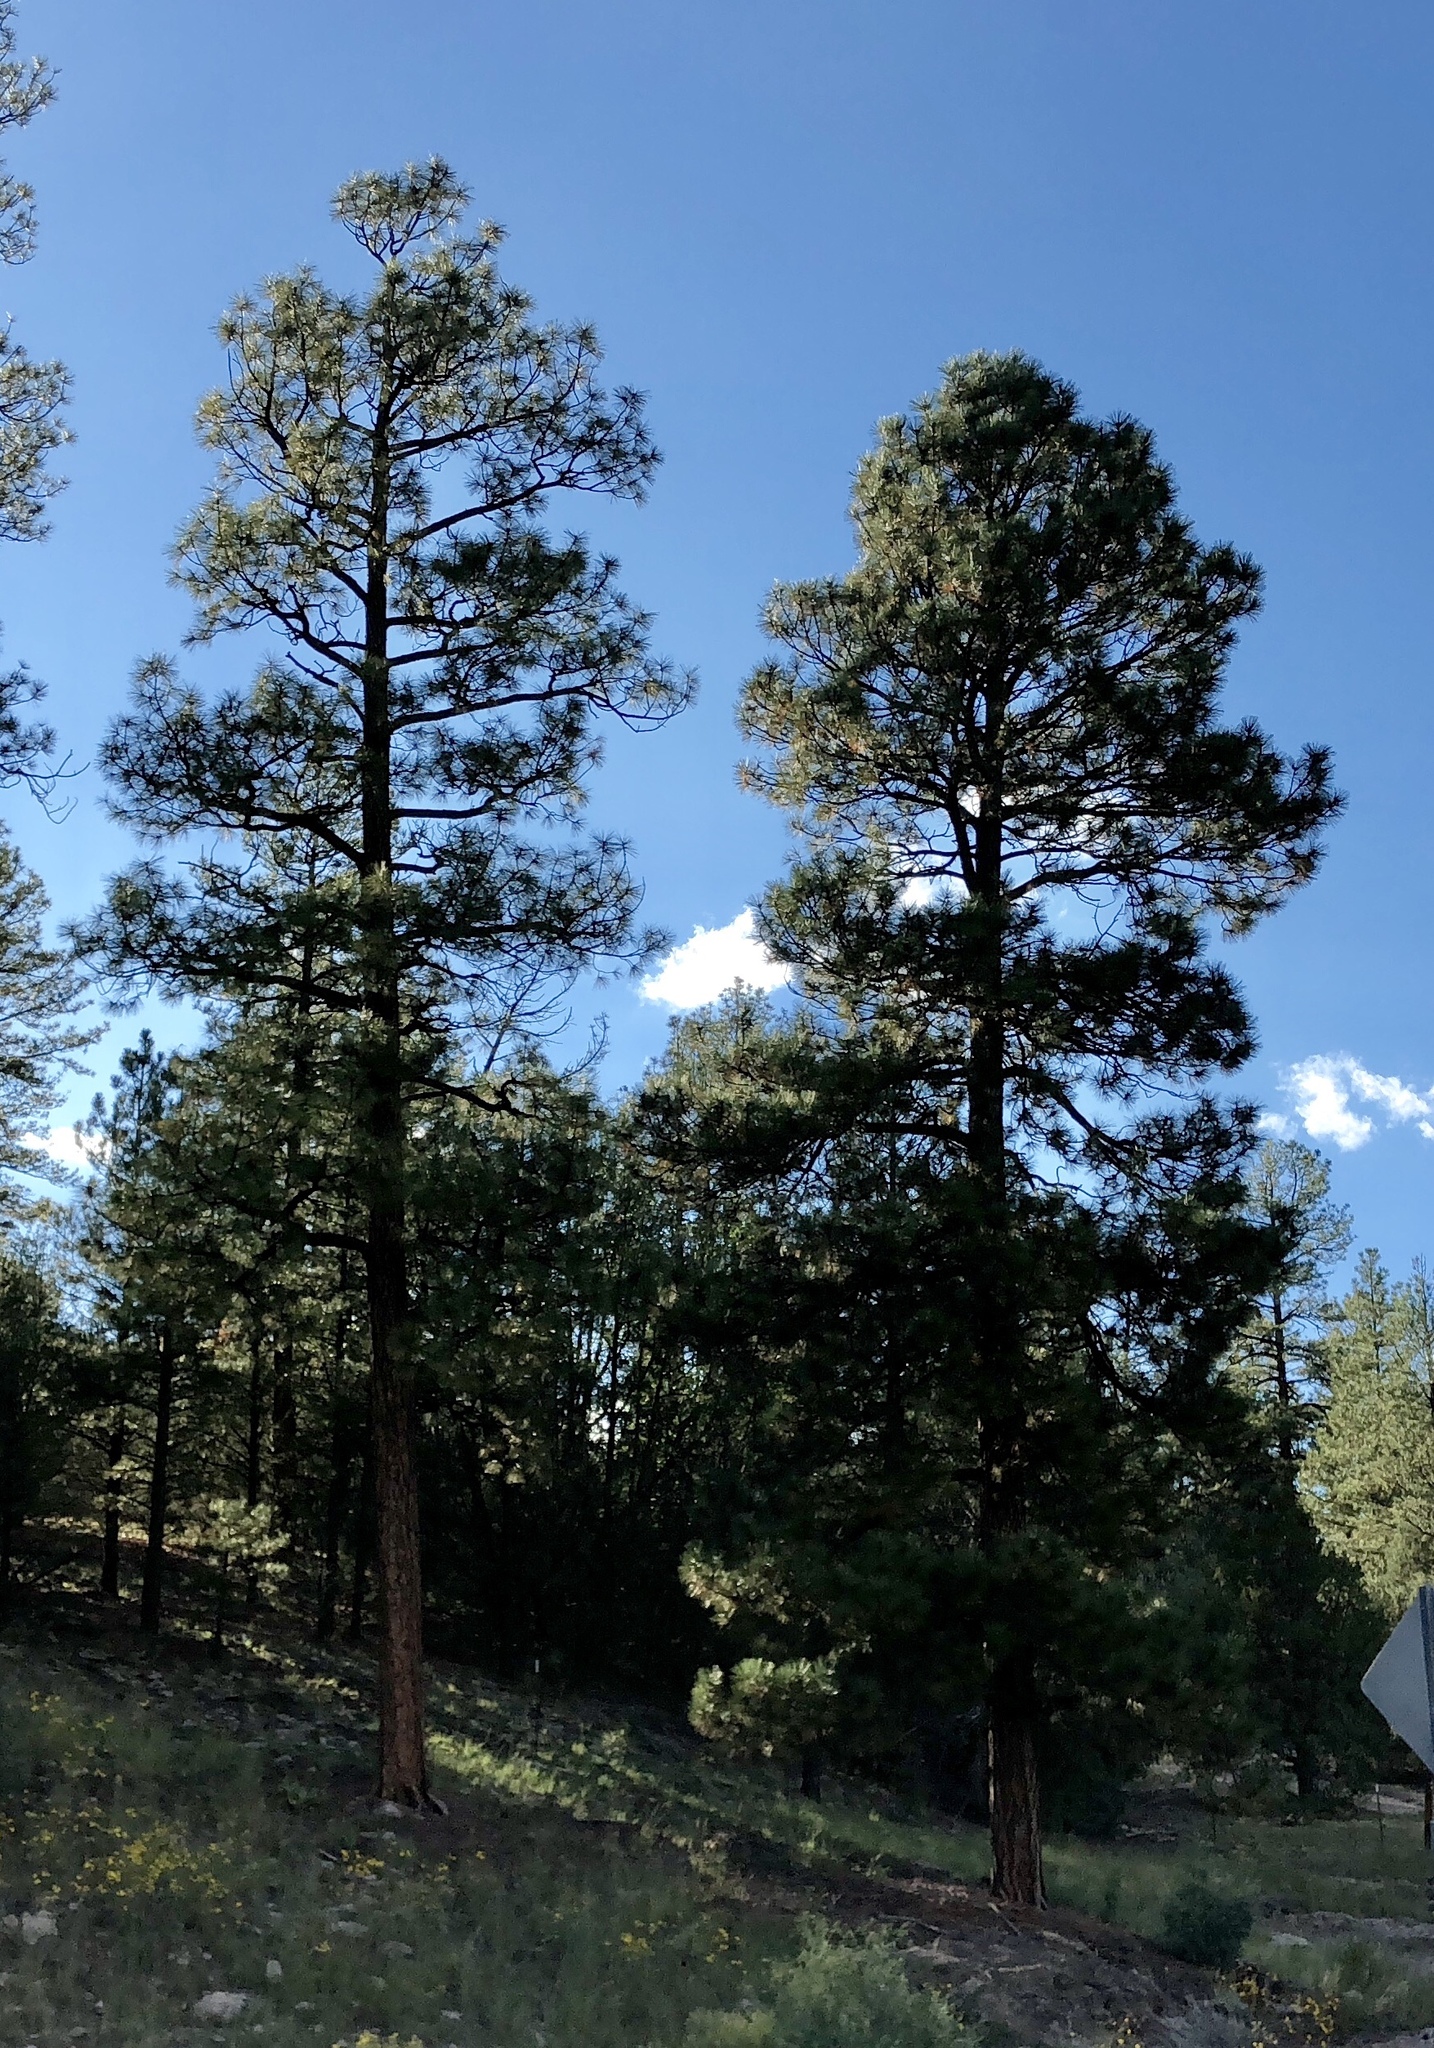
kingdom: Plantae
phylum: Tracheophyta
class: Pinopsida
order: Pinales
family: Pinaceae
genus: Pinus
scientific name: Pinus ponderosa
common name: Western yellow-pine
